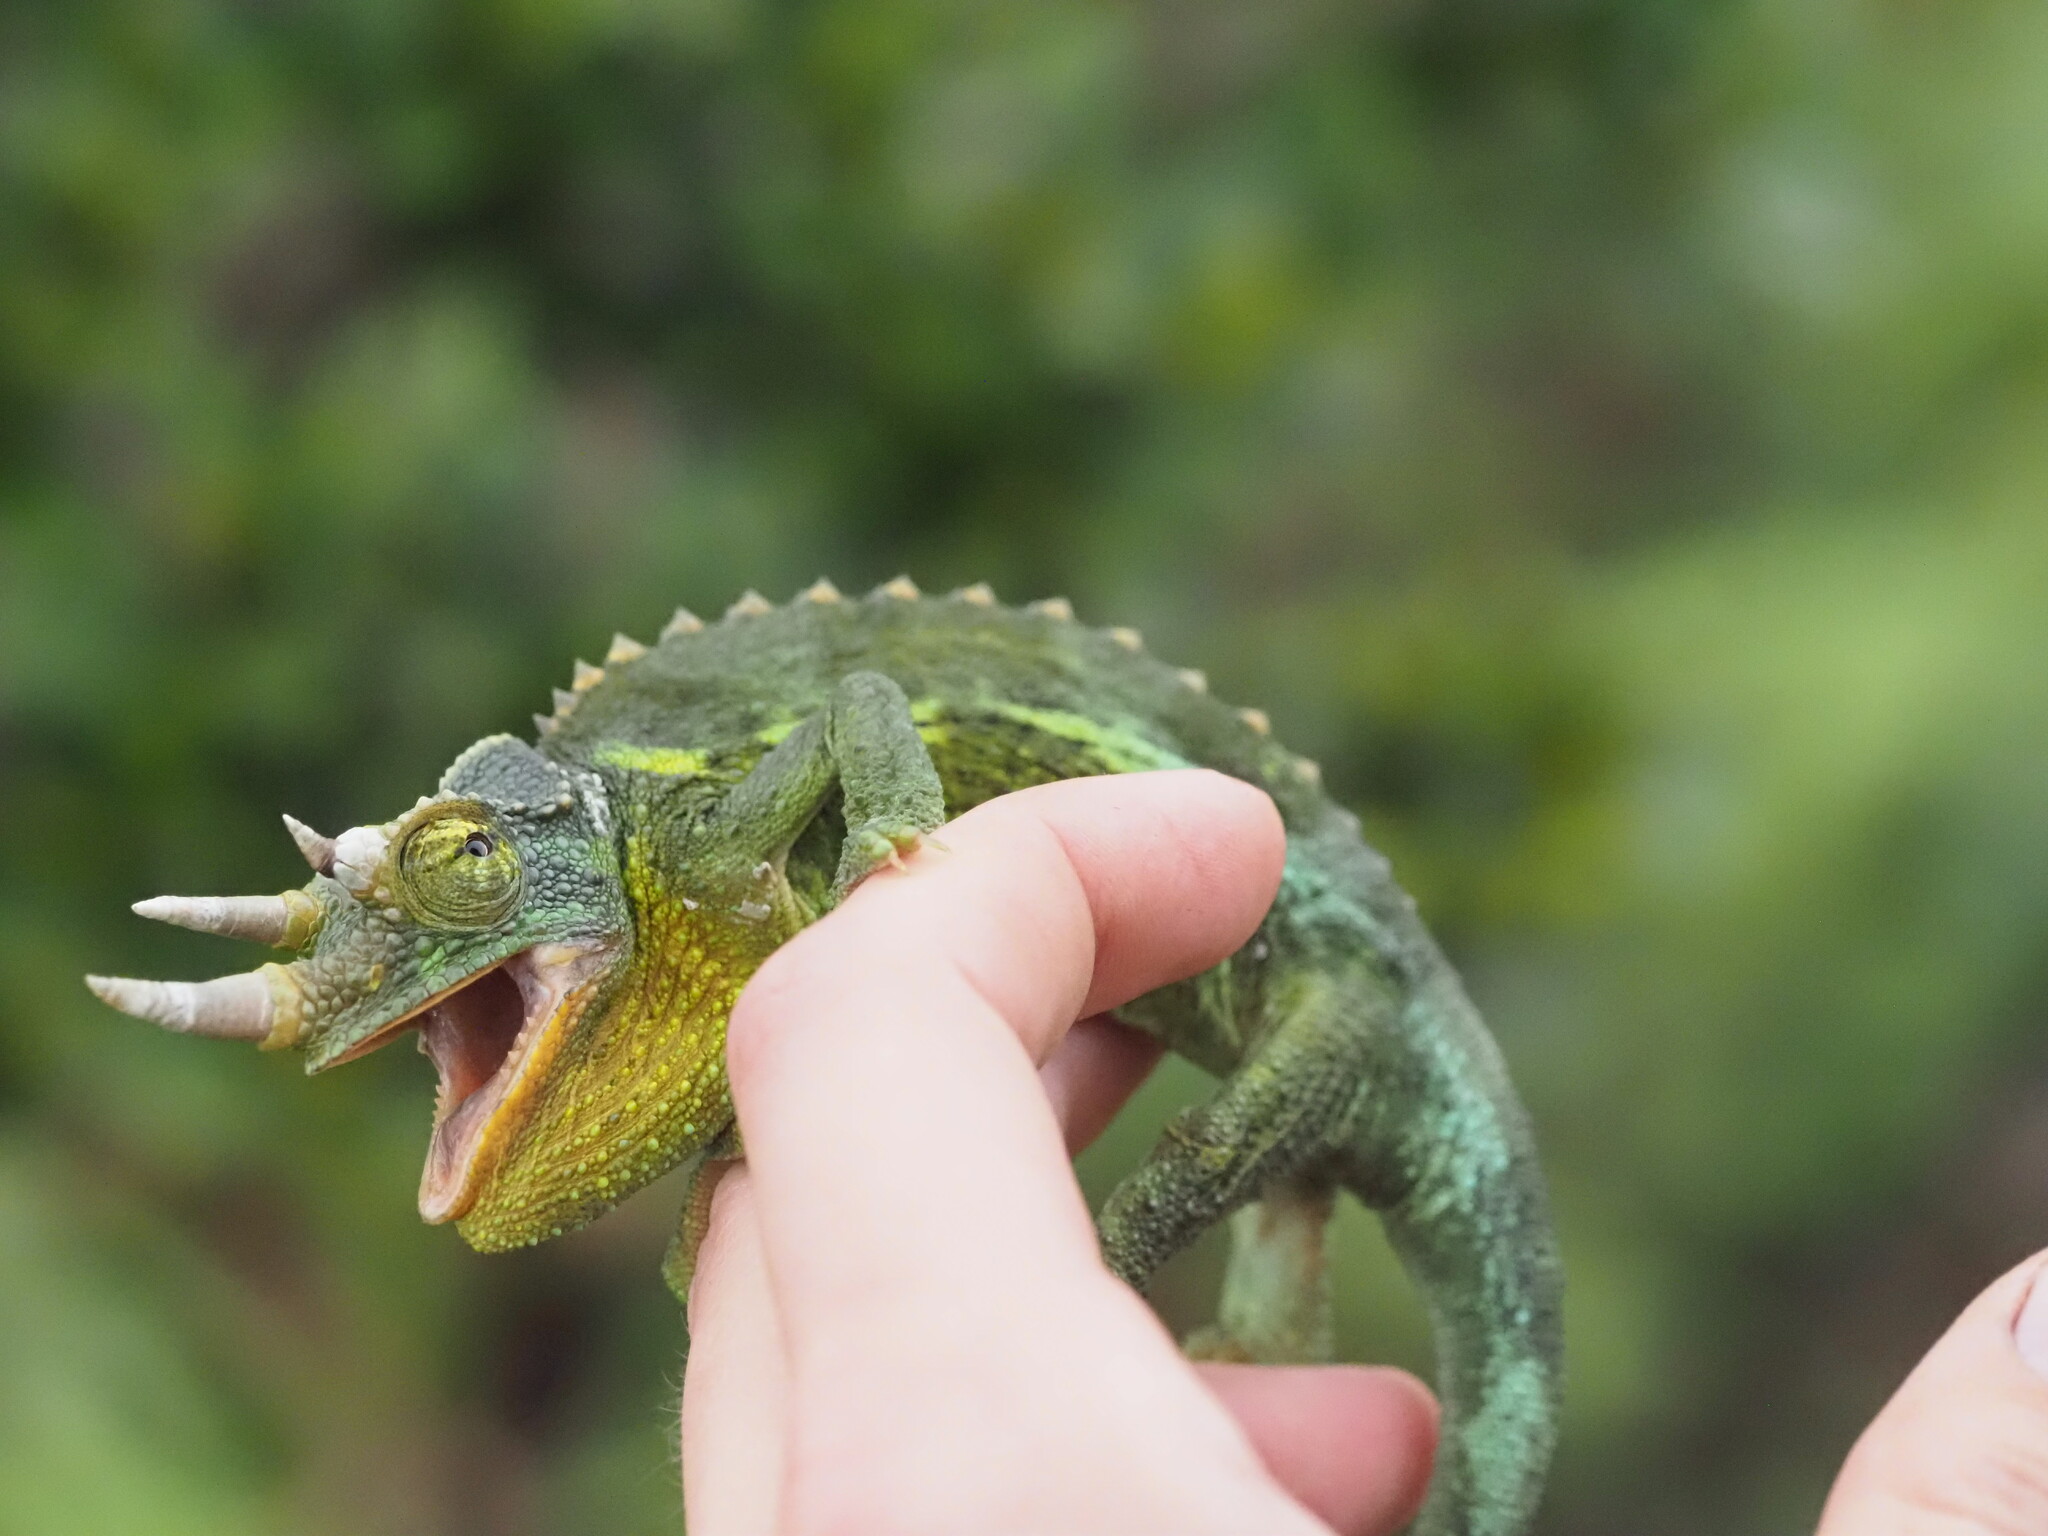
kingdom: Animalia
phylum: Chordata
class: Squamata
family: Chamaeleonidae
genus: Trioceros
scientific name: Trioceros jacksonii
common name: Jackson's chameleon
